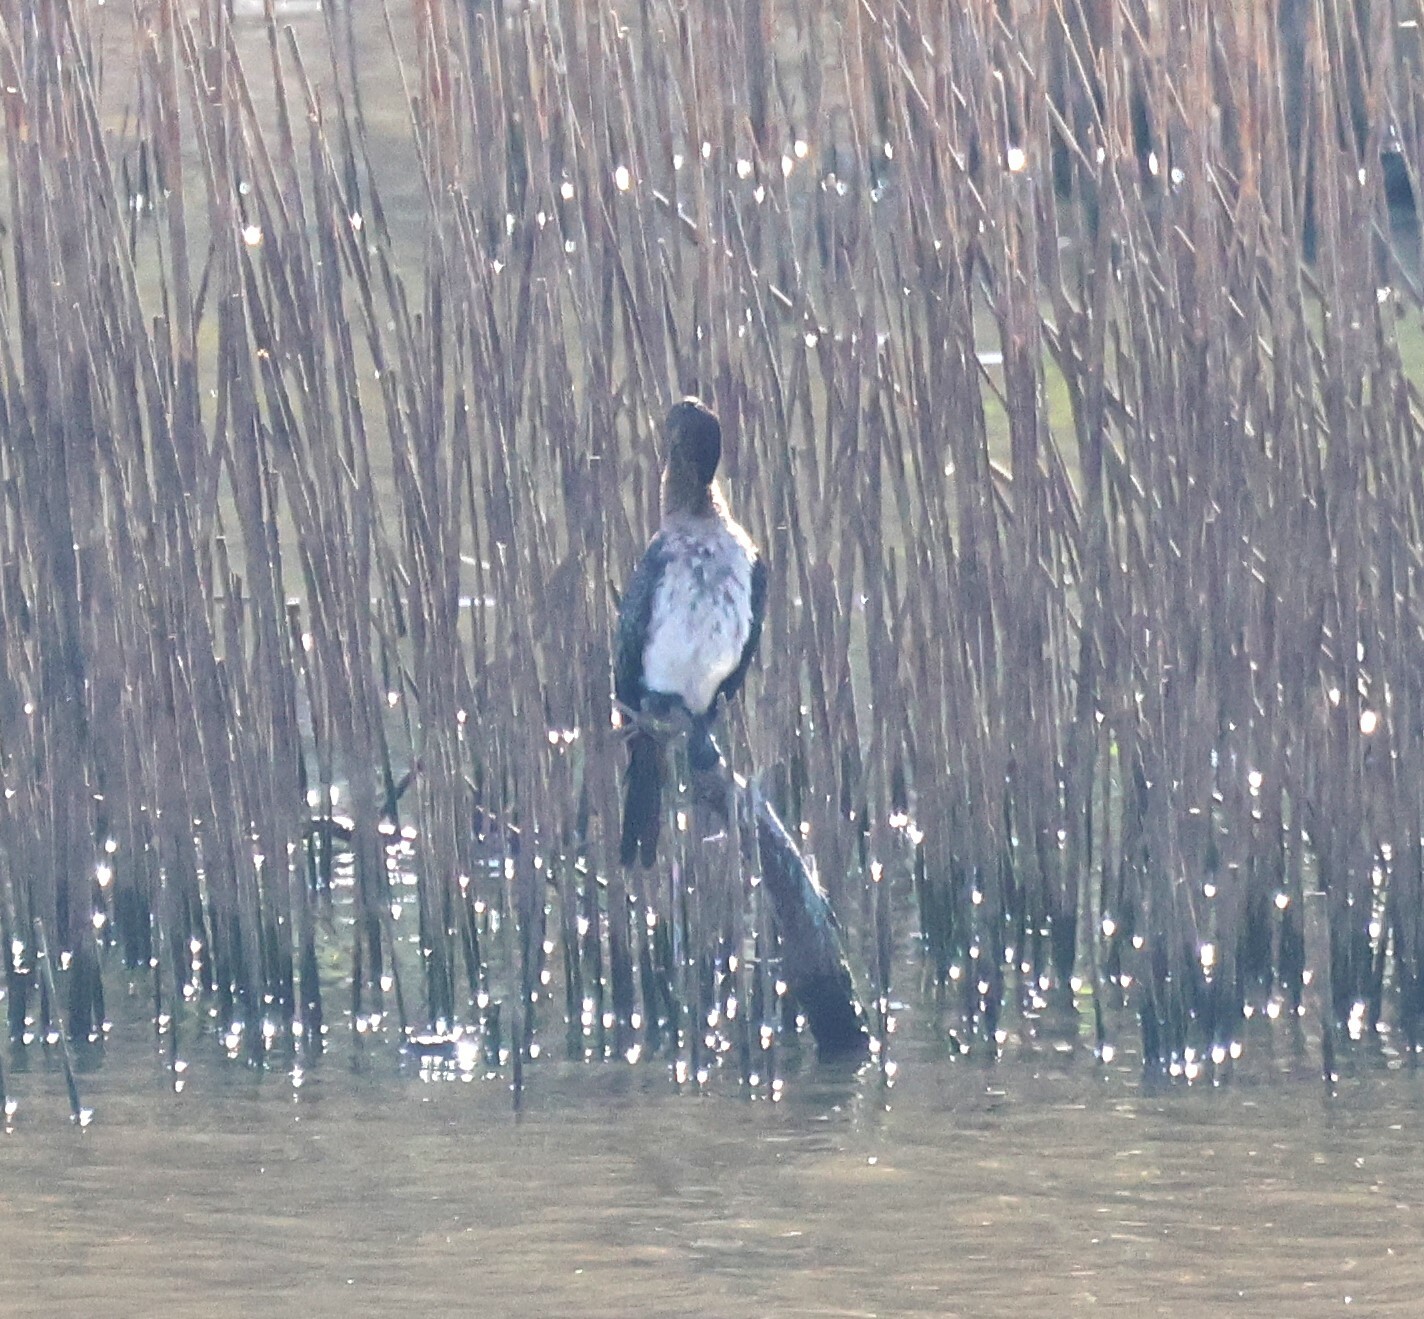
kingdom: Animalia
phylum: Chordata
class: Aves
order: Suliformes
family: Phalacrocoracidae
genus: Microcarbo
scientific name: Microcarbo africanus
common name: Long-tailed cormorant
